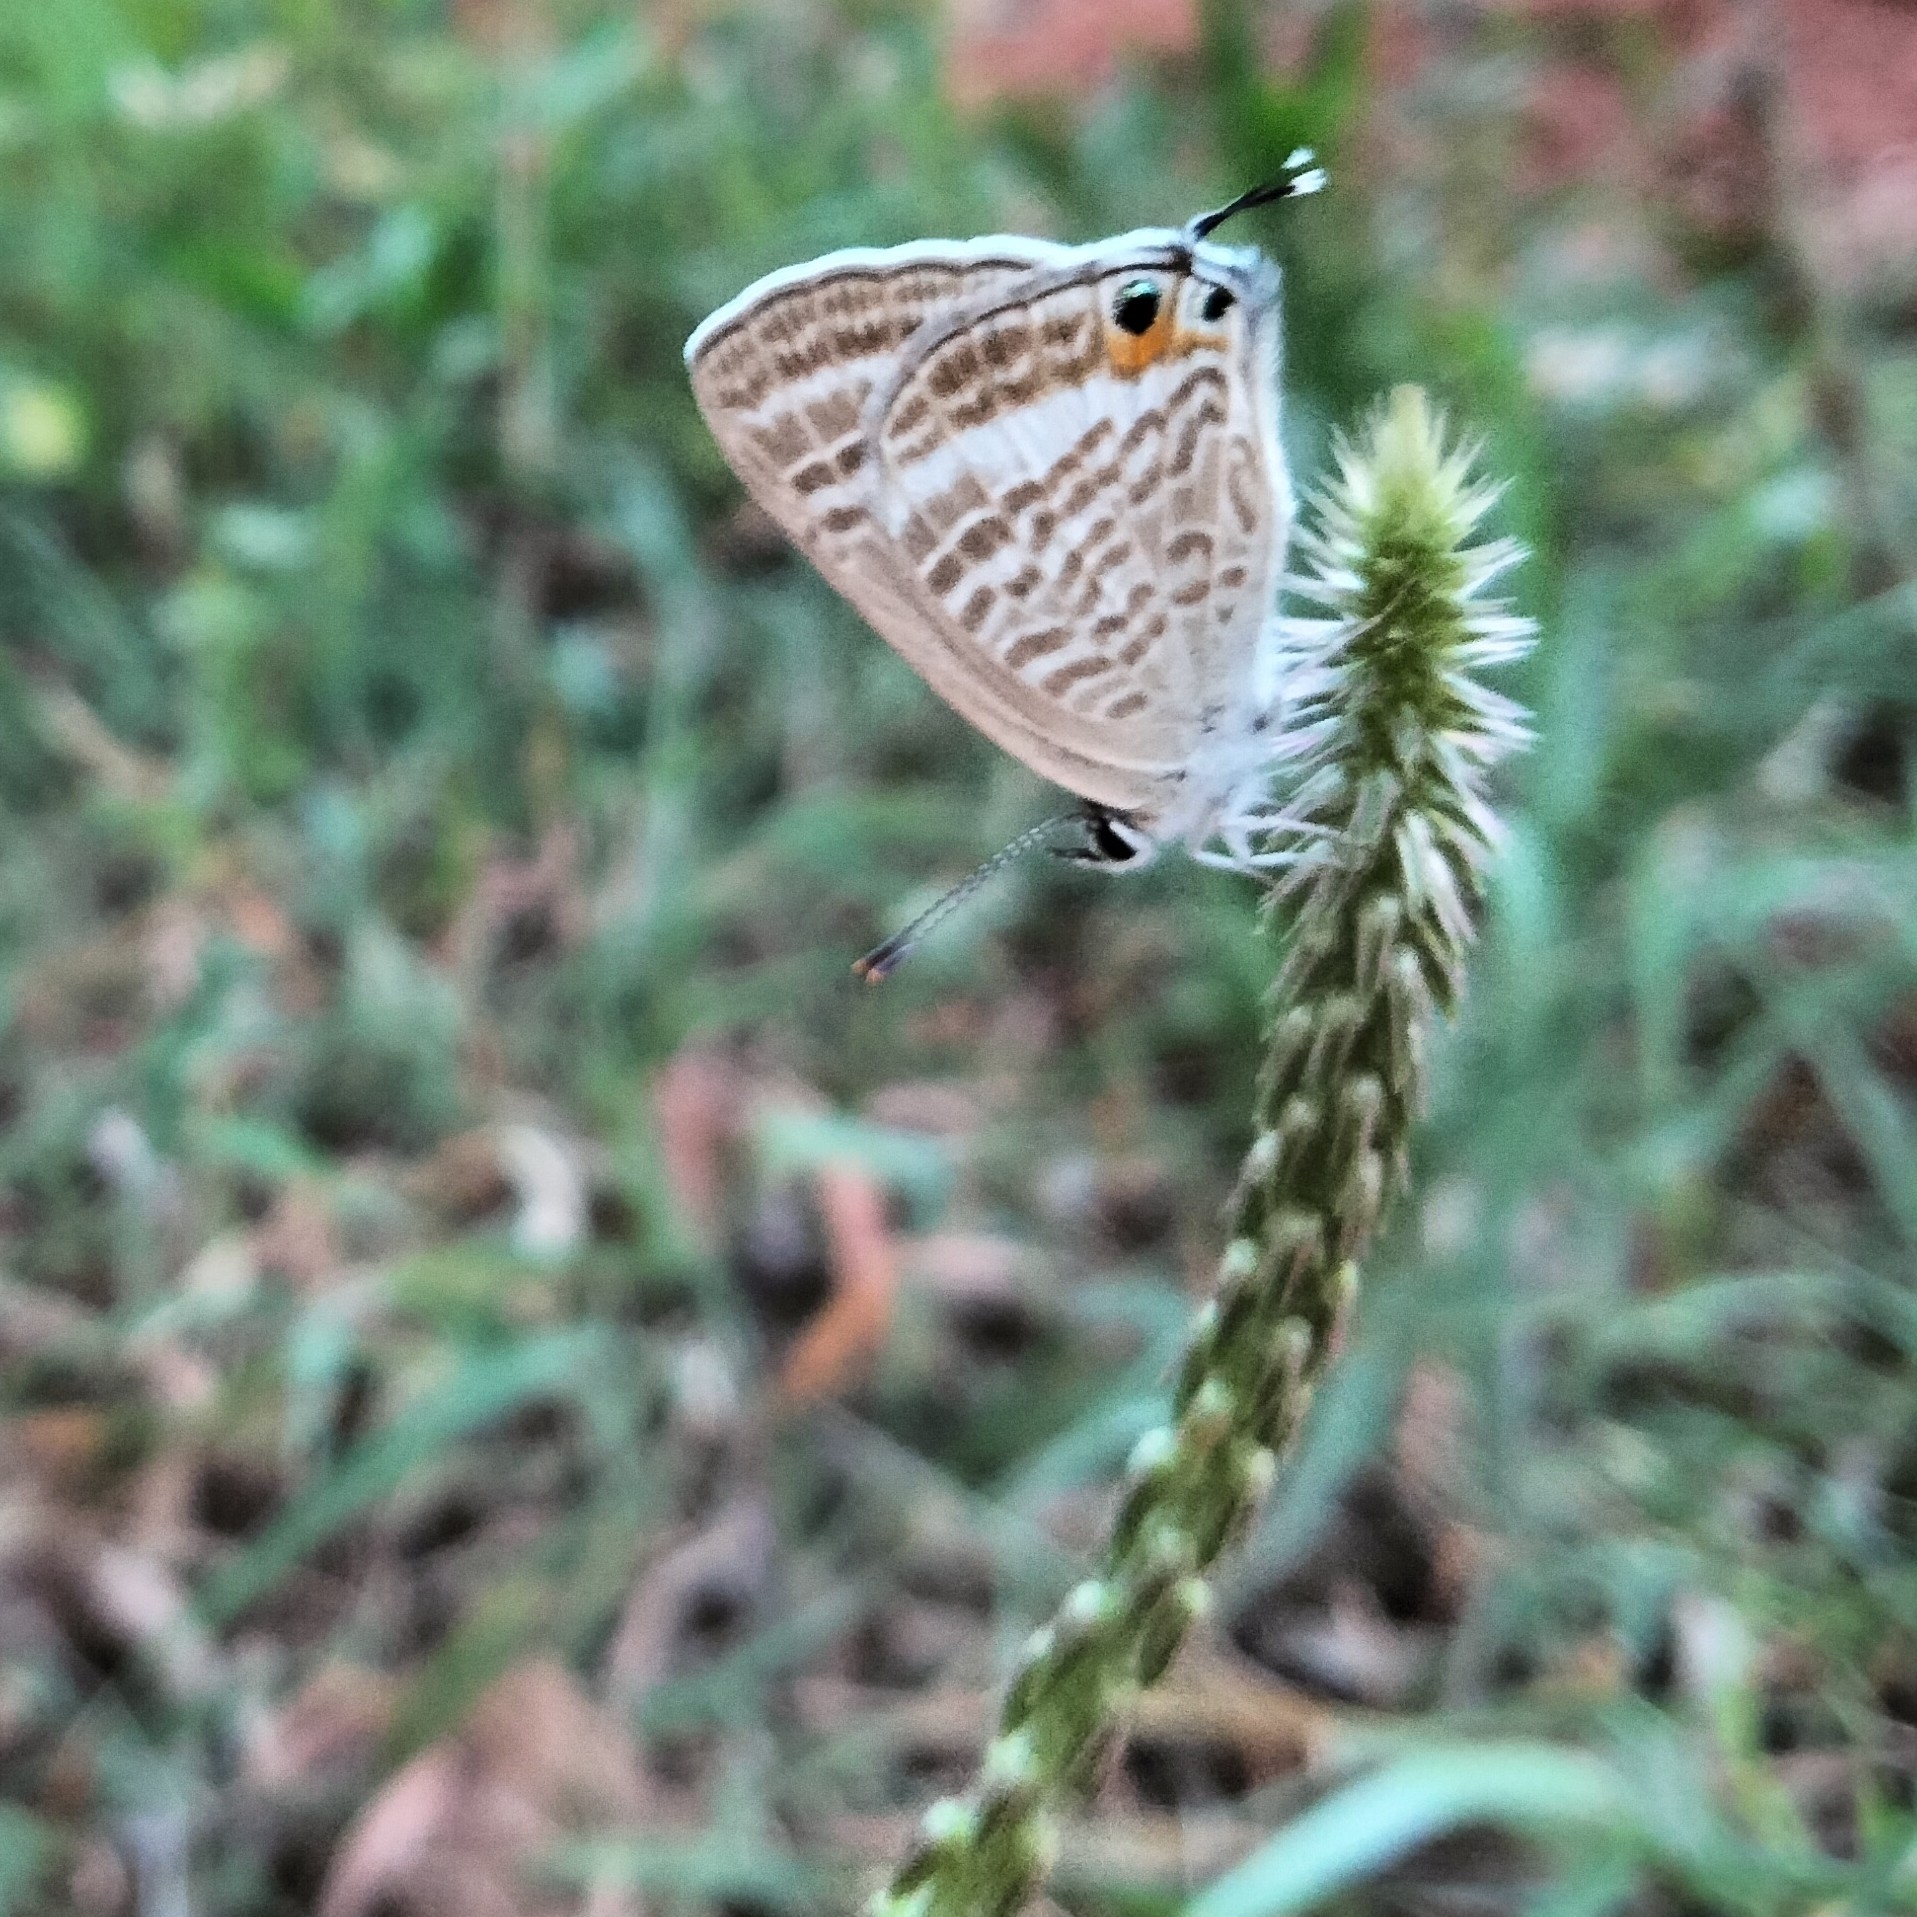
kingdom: Animalia
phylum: Arthropoda
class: Insecta
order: Lepidoptera
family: Lycaenidae
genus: Lampides
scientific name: Lampides boeticus
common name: Long-tailed blue
